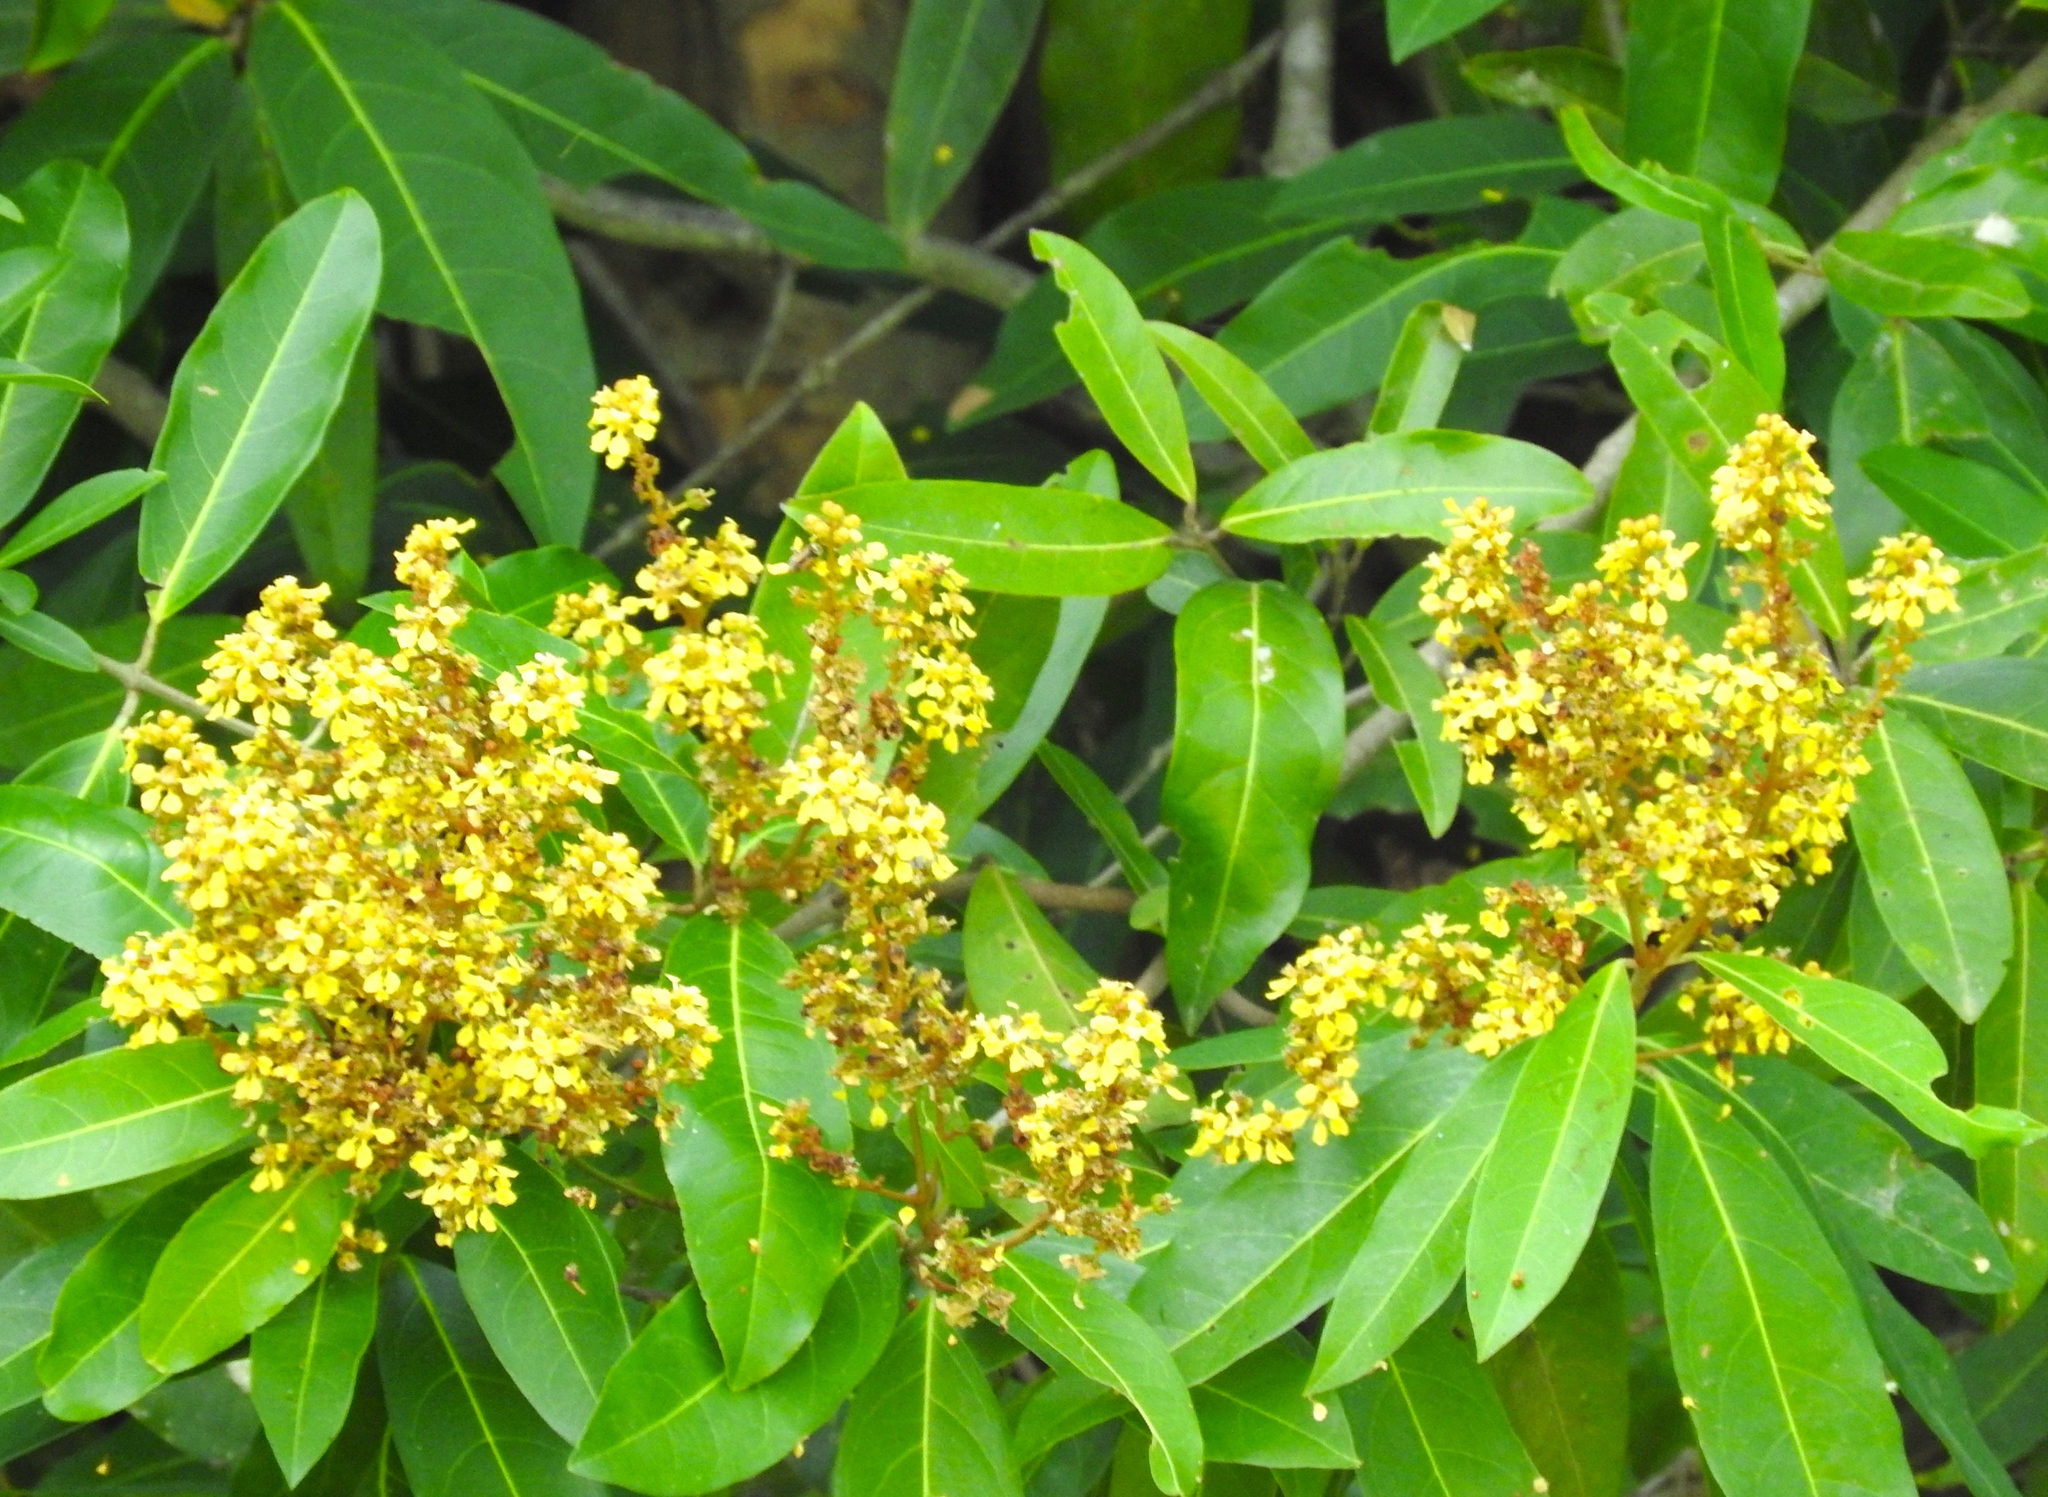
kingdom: Plantae
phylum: Tracheophyta
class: Magnoliopsida
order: Malpighiales
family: Malpighiaceae
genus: Heteropterys
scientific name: Heteropterys laurifolia
